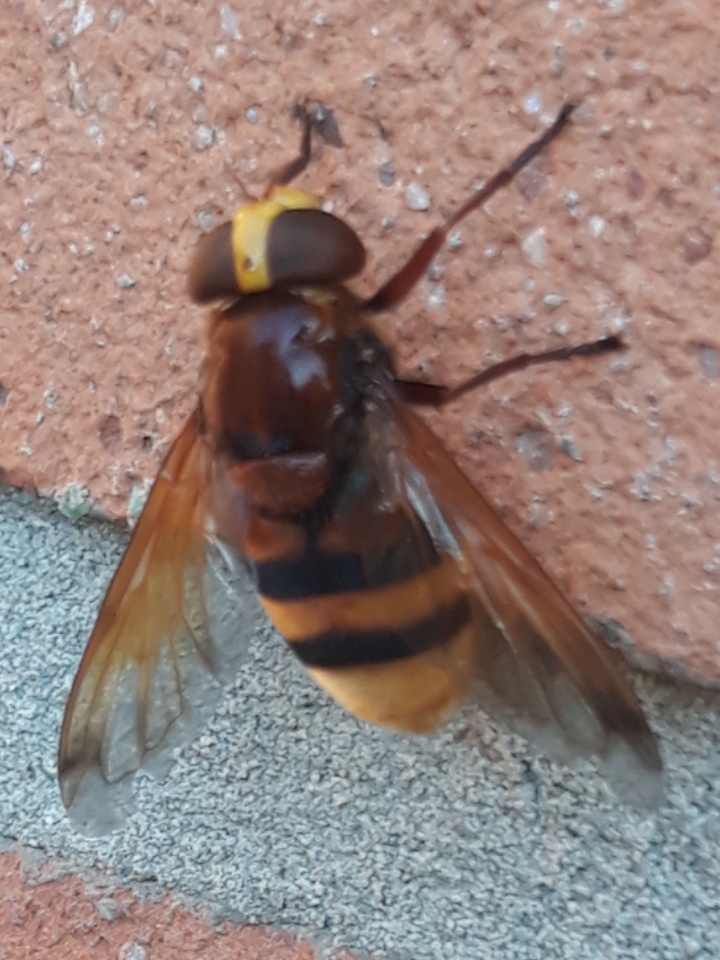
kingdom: Animalia
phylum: Arthropoda
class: Insecta
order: Diptera
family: Syrphidae
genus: Volucella
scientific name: Volucella zonaria
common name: Hornet hoverfly
